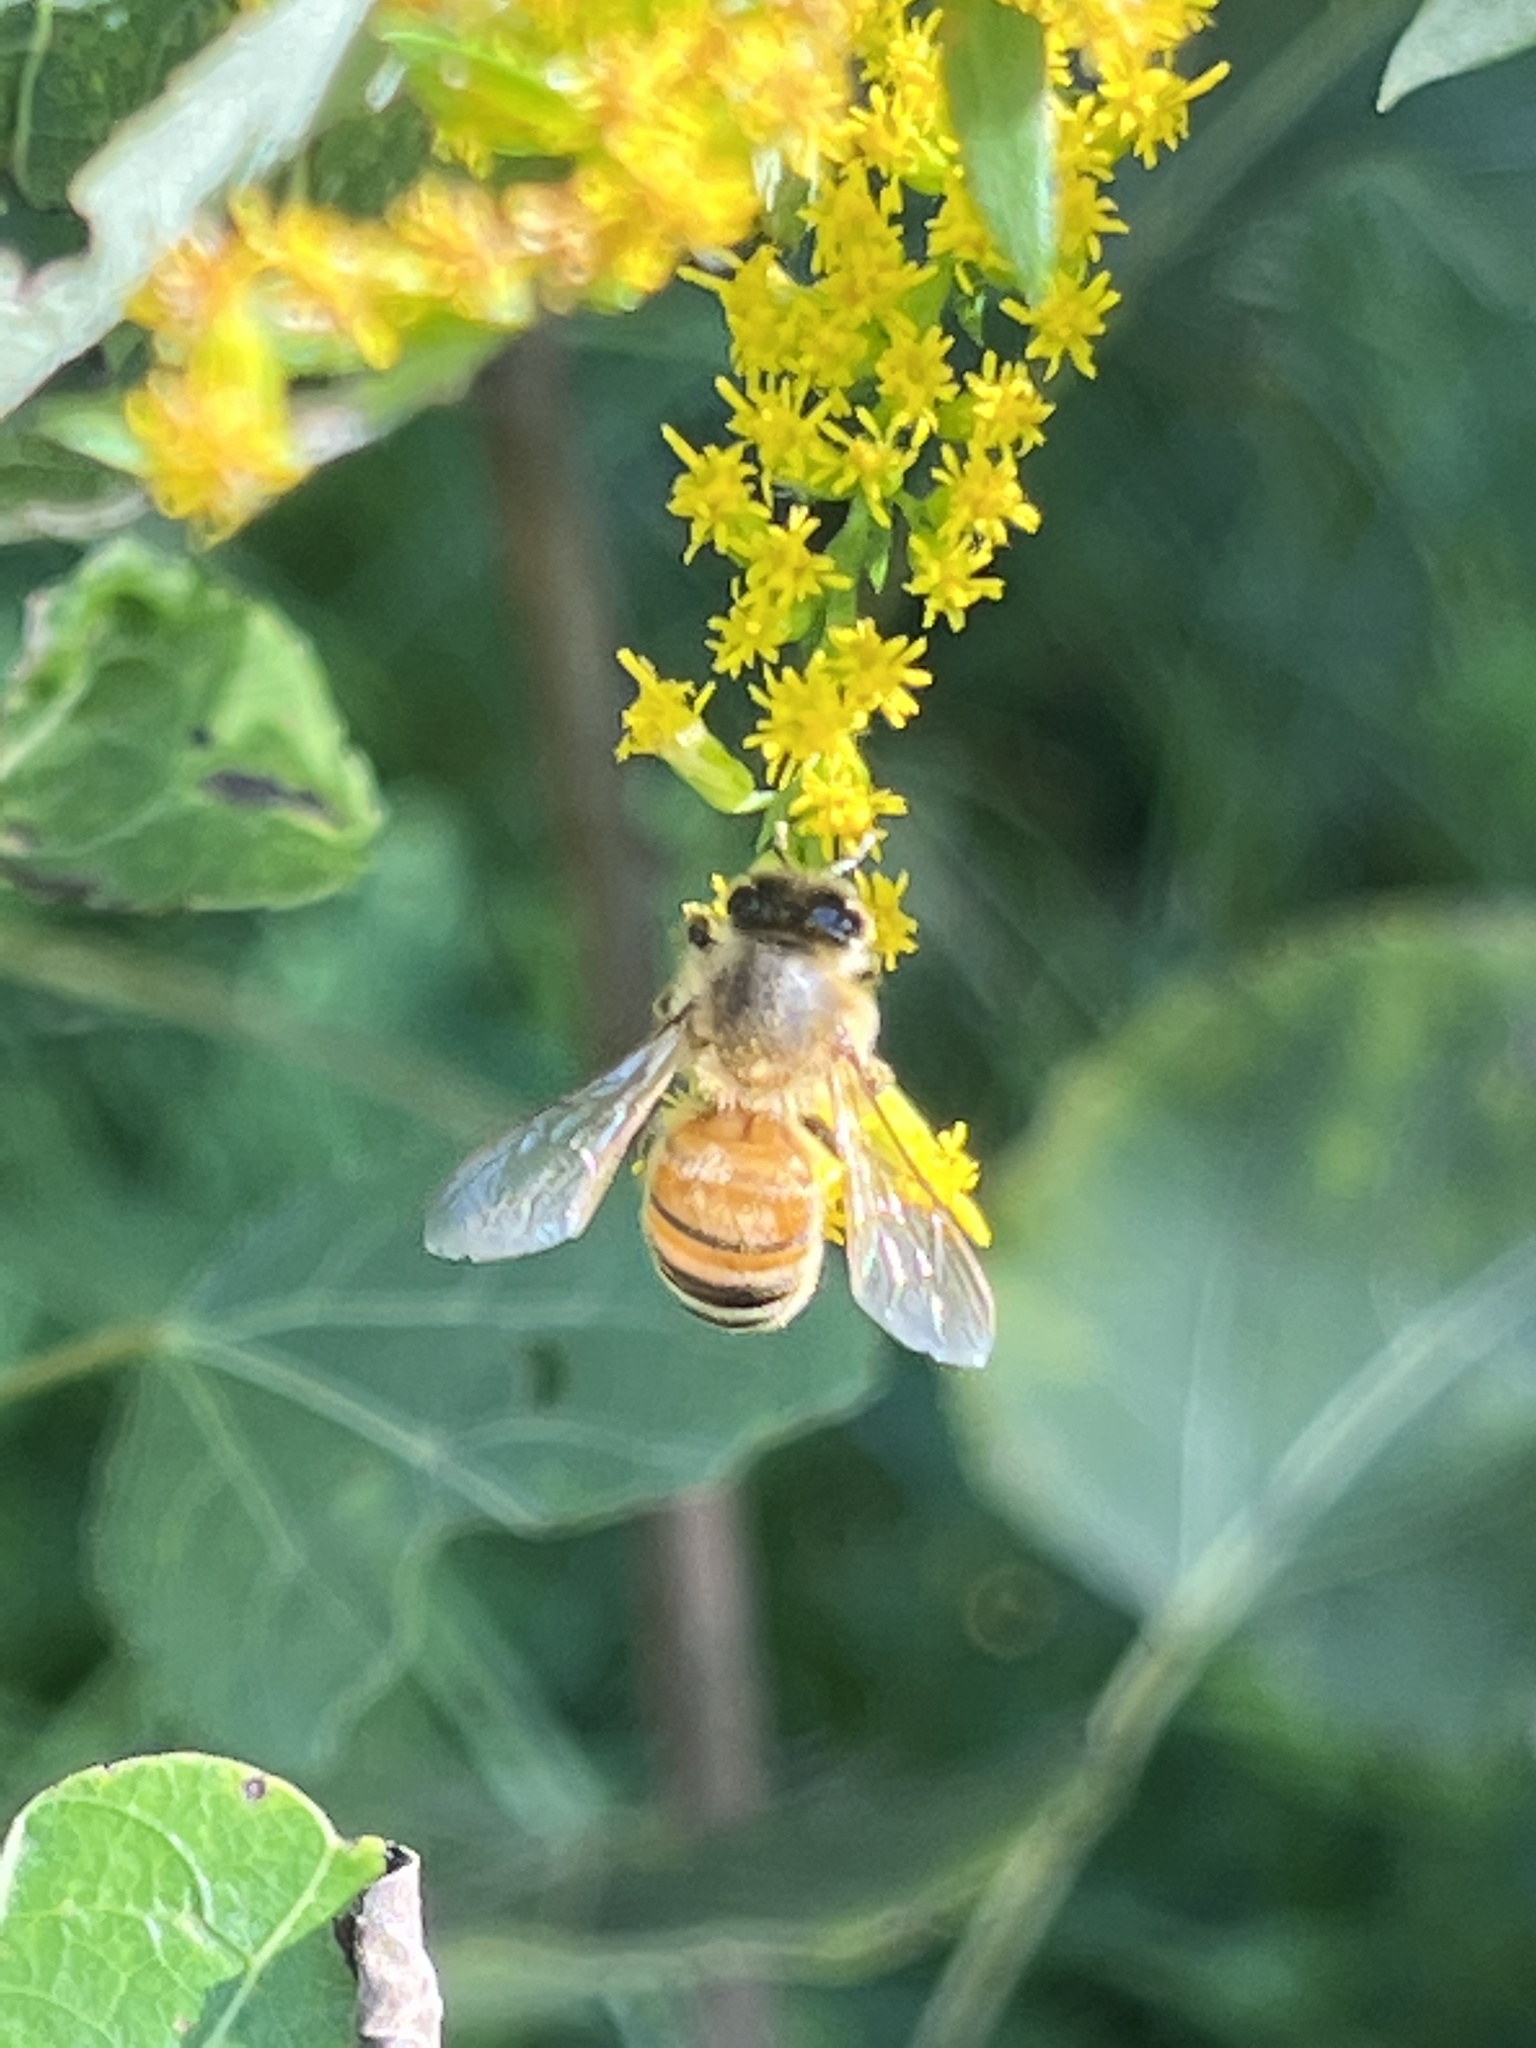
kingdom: Animalia
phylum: Arthropoda
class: Insecta
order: Hymenoptera
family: Apidae
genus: Apis
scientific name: Apis mellifera
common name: Honey bee
